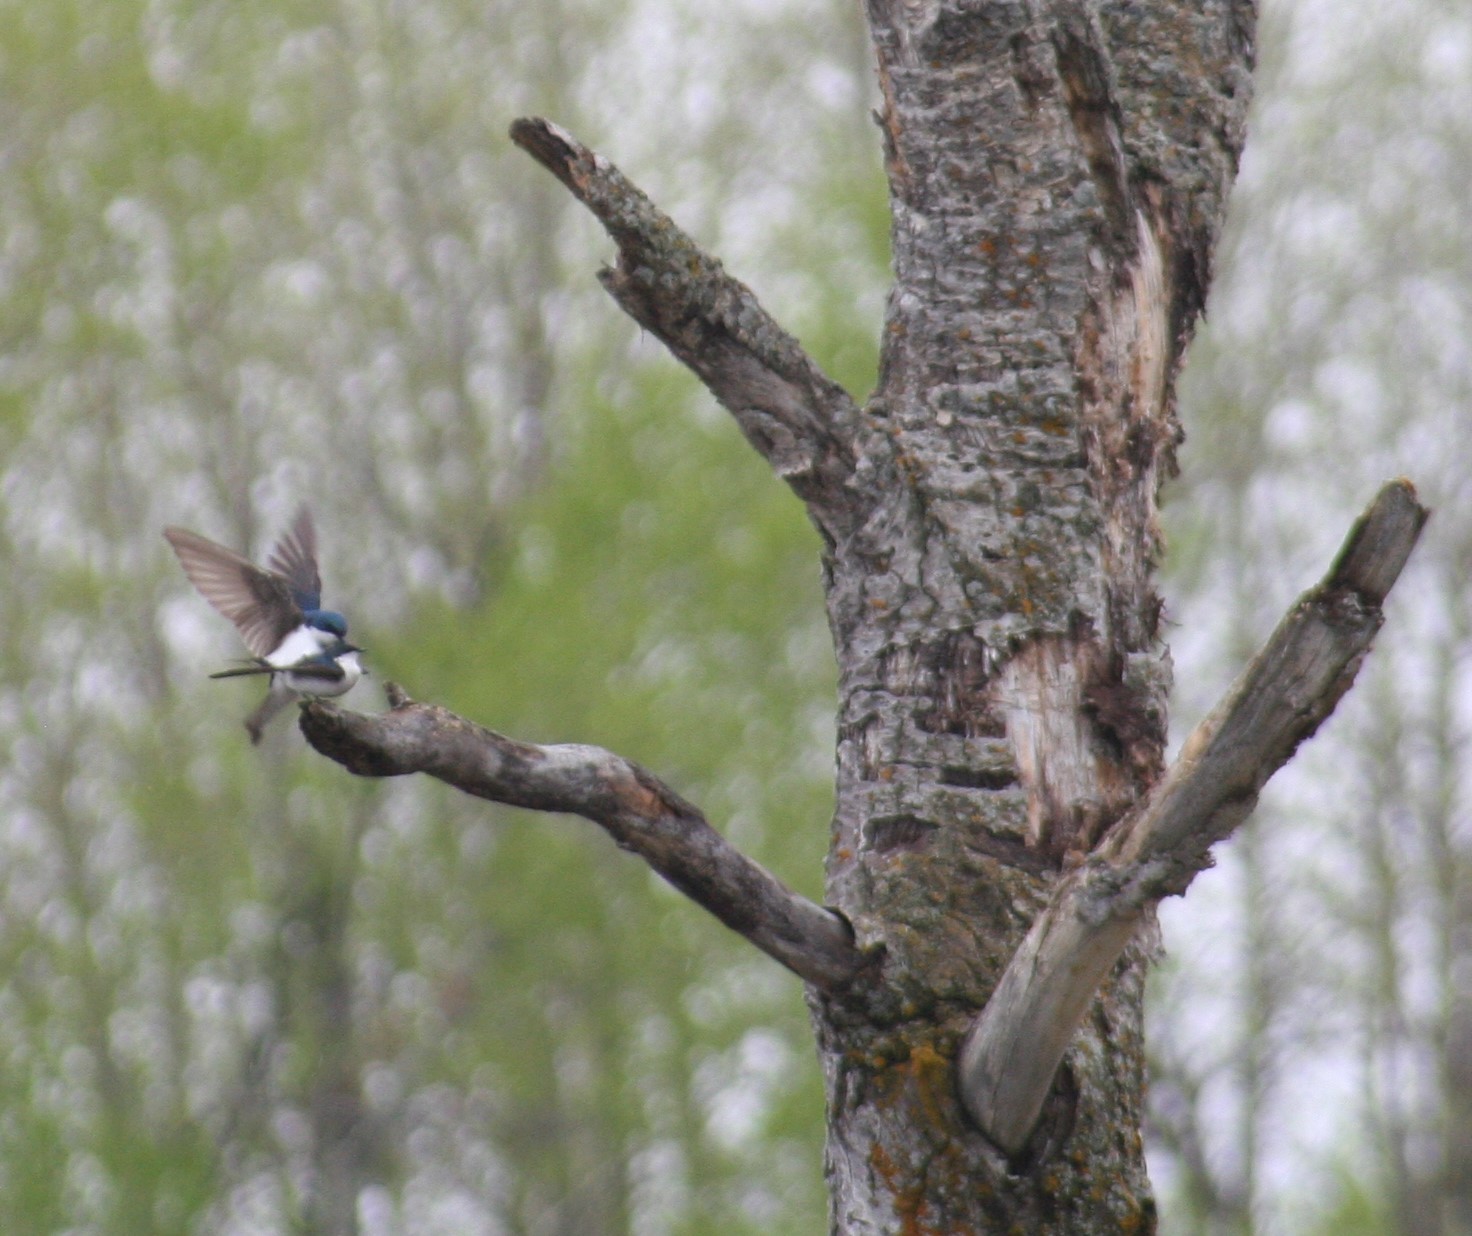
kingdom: Animalia
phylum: Chordata
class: Aves
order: Passeriformes
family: Hirundinidae
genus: Tachycineta
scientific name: Tachycineta bicolor
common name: Tree swallow
